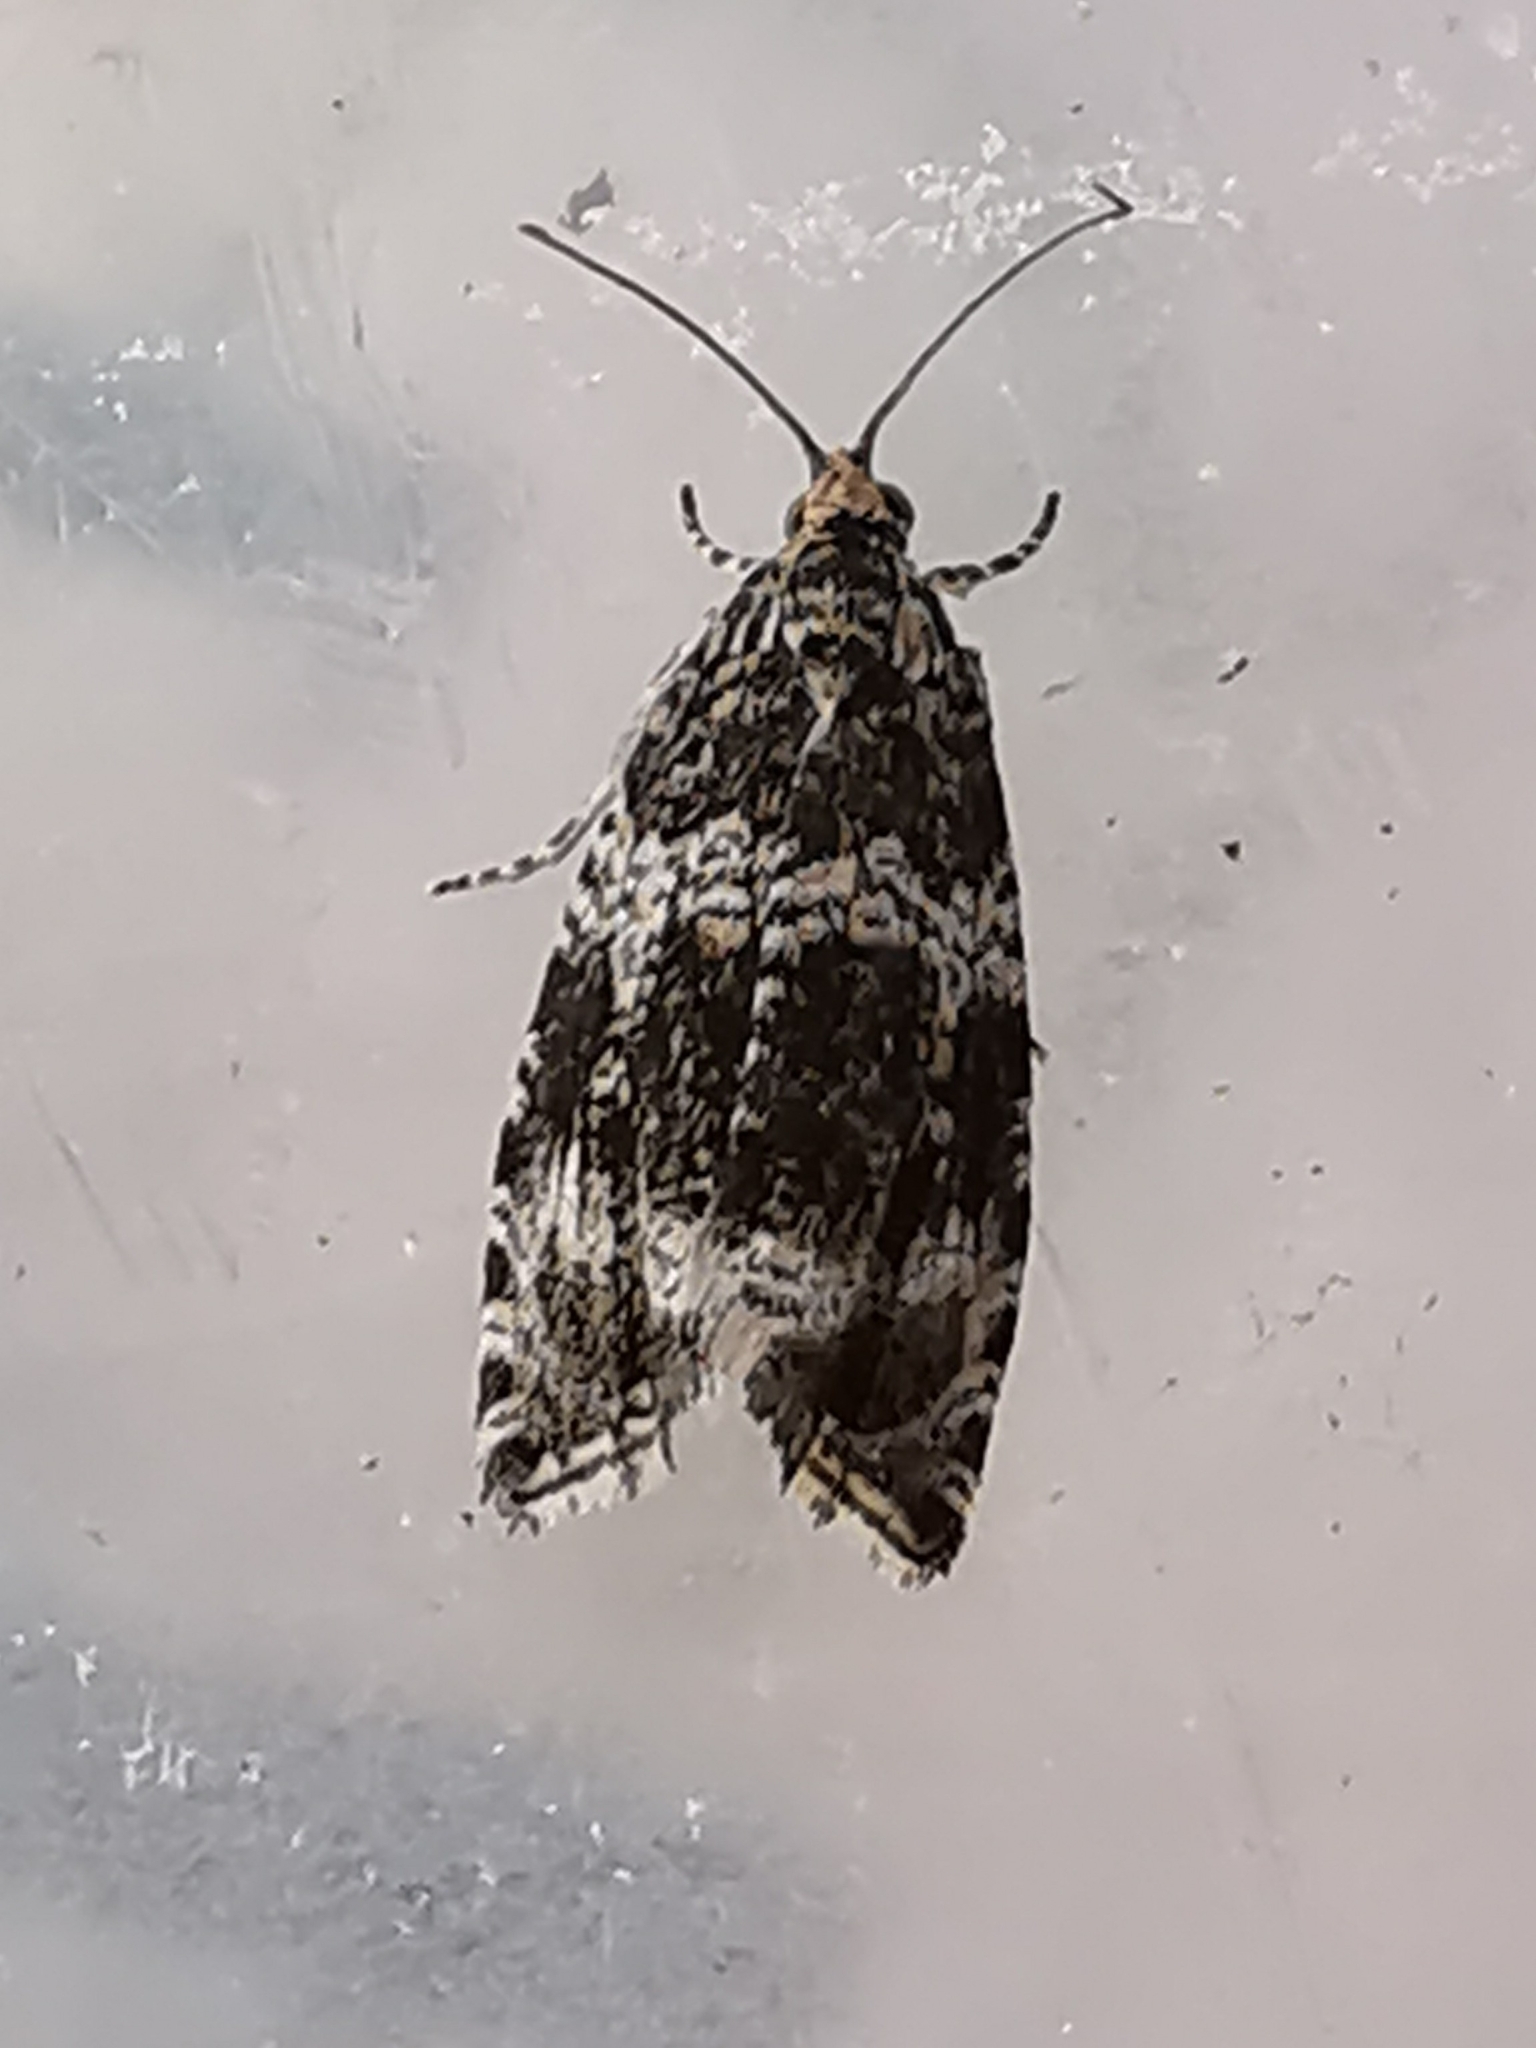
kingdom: Animalia
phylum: Arthropoda
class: Insecta
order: Lepidoptera
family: Tortricidae
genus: Syricoris
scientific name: Syricoris lacunana
